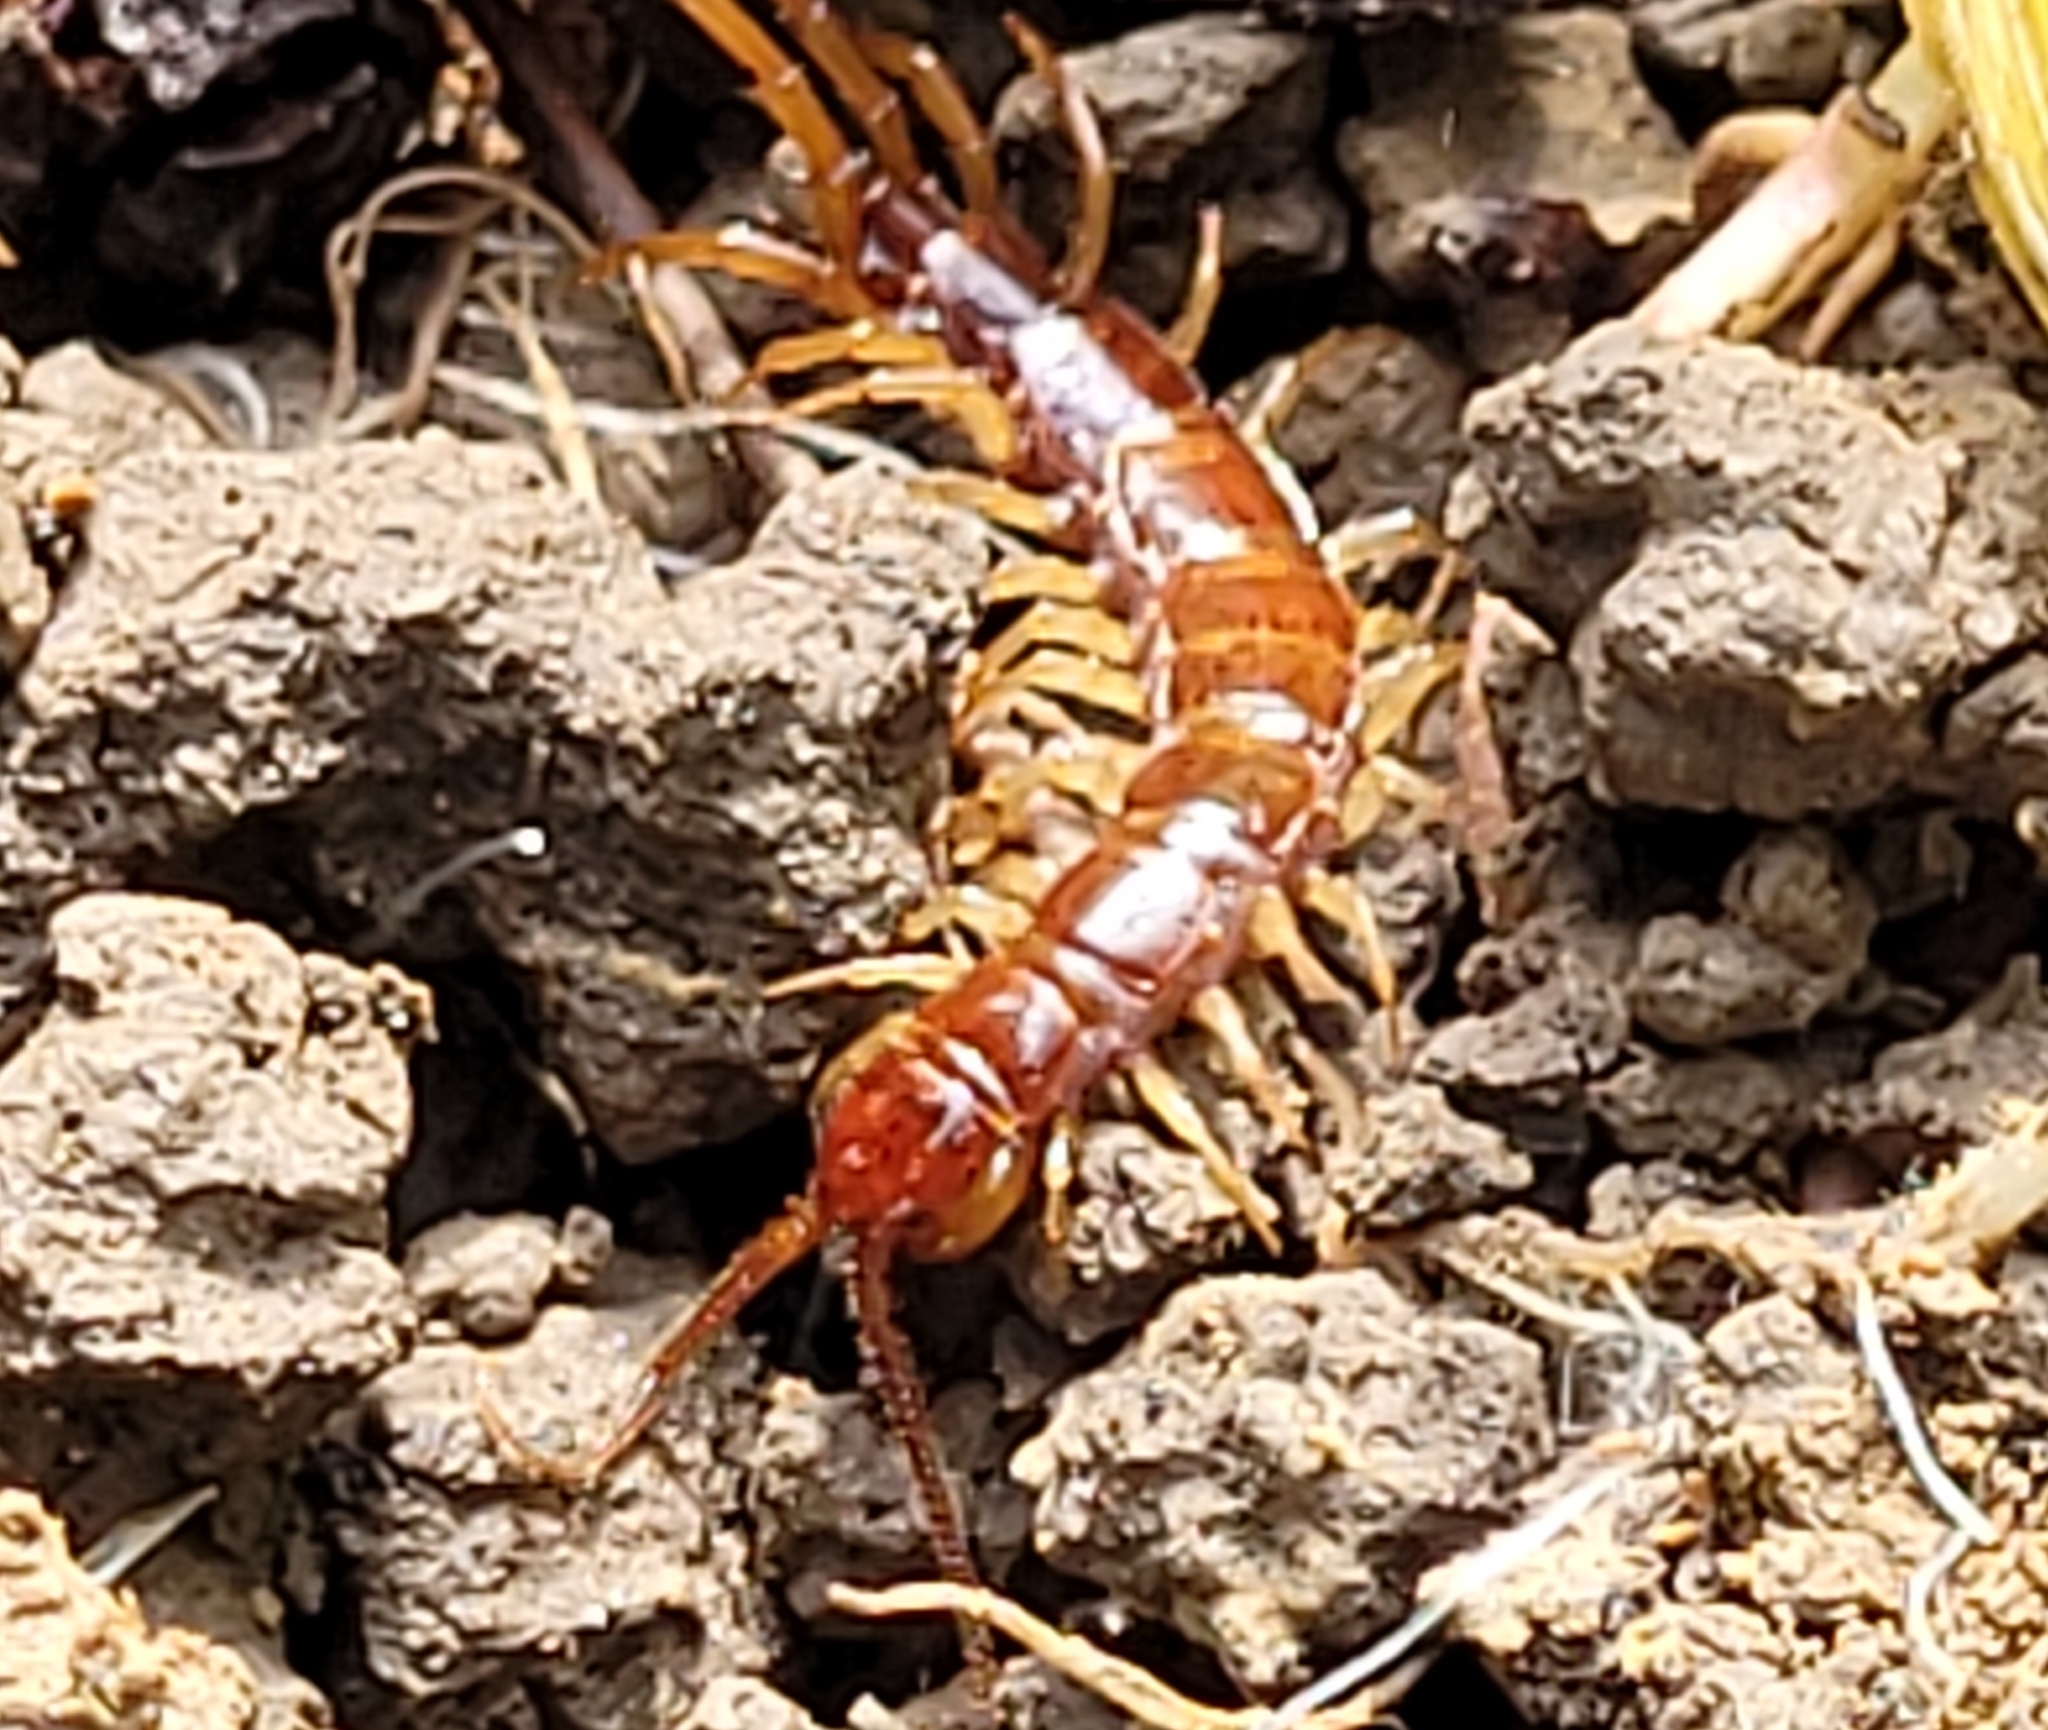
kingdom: Animalia
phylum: Arthropoda
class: Chilopoda
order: Lithobiomorpha
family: Lithobiidae
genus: Lithobius
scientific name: Lithobius forficatus
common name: Centipede
